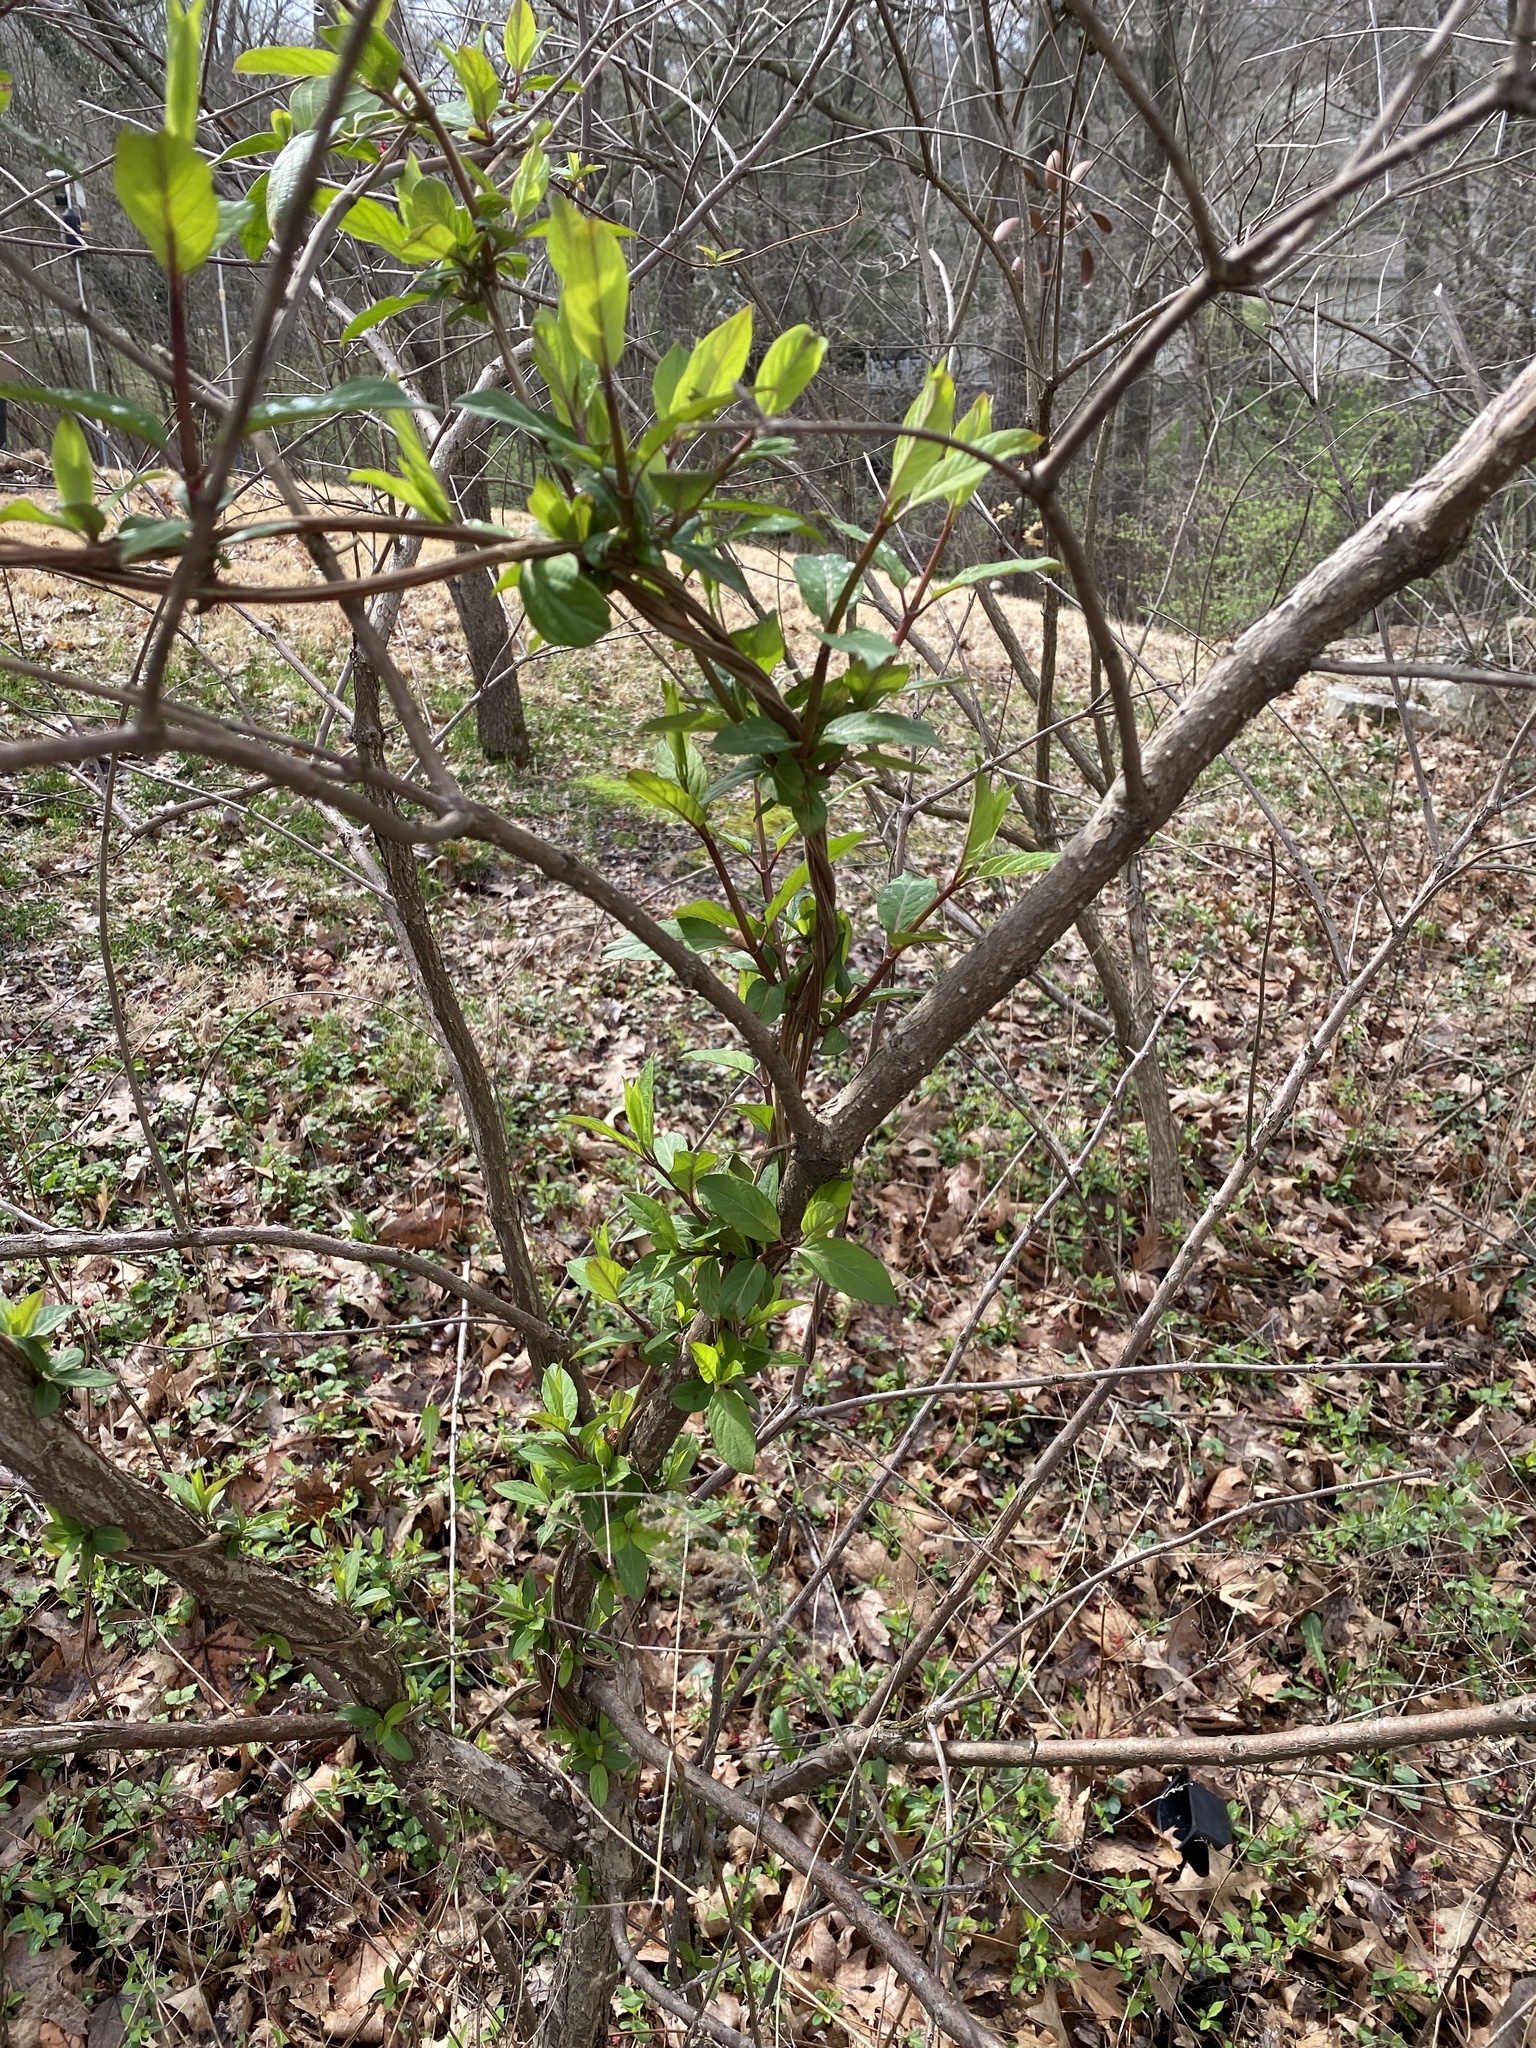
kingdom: Plantae
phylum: Tracheophyta
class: Magnoliopsida
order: Dipsacales
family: Caprifoliaceae
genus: Lonicera
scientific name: Lonicera japonica
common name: Japanese honeysuckle
